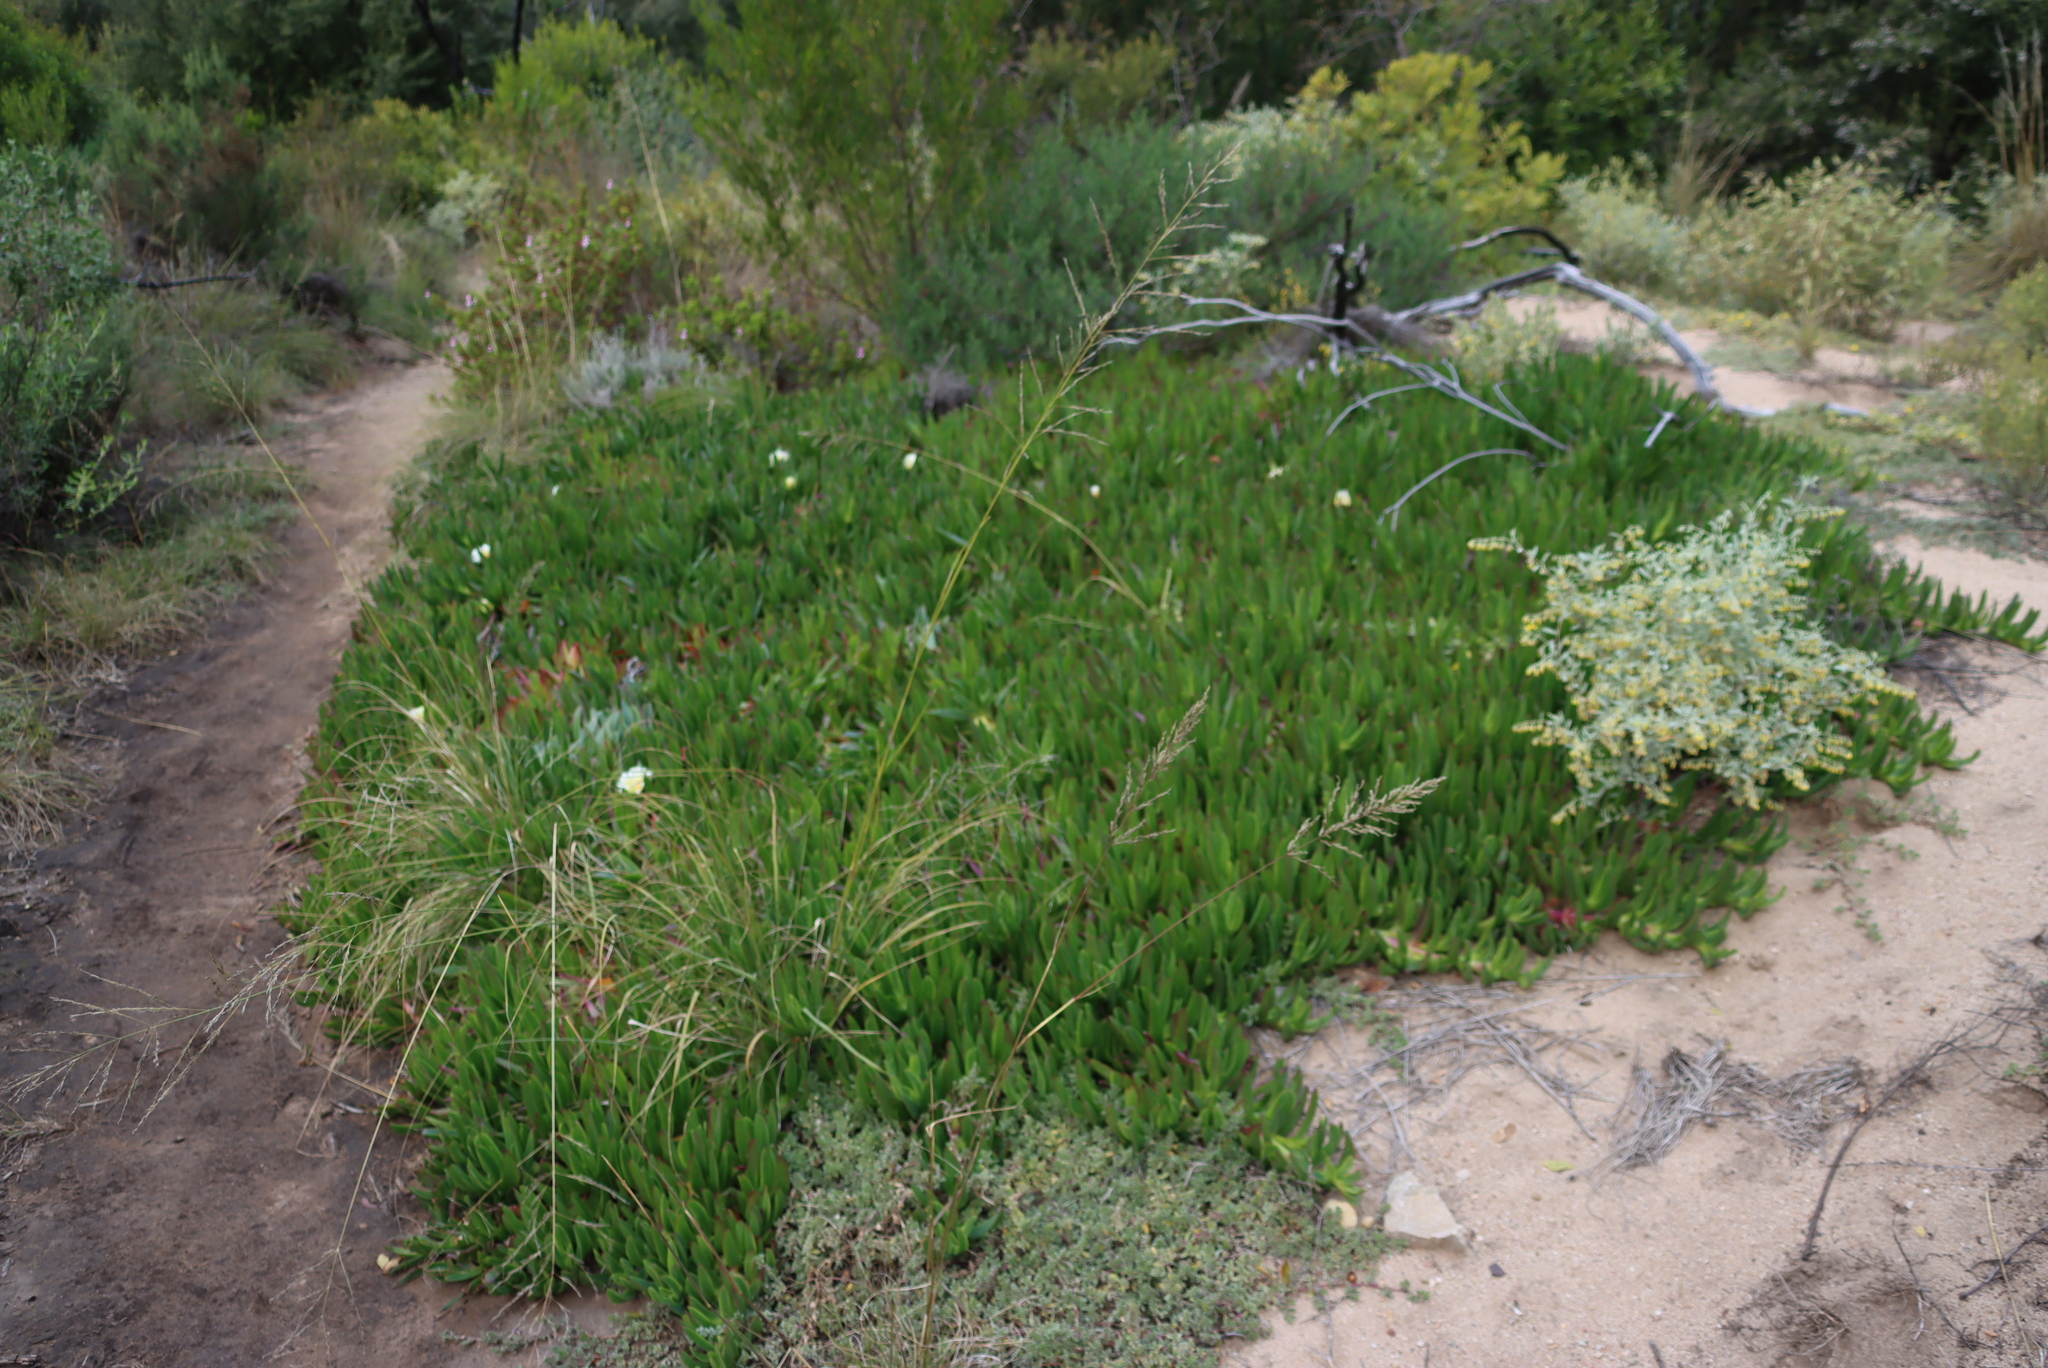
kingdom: Plantae
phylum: Tracheophyta
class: Magnoliopsida
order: Caryophyllales
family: Aizoaceae
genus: Carpobrotus
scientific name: Carpobrotus edulis
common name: Hottentot-fig
